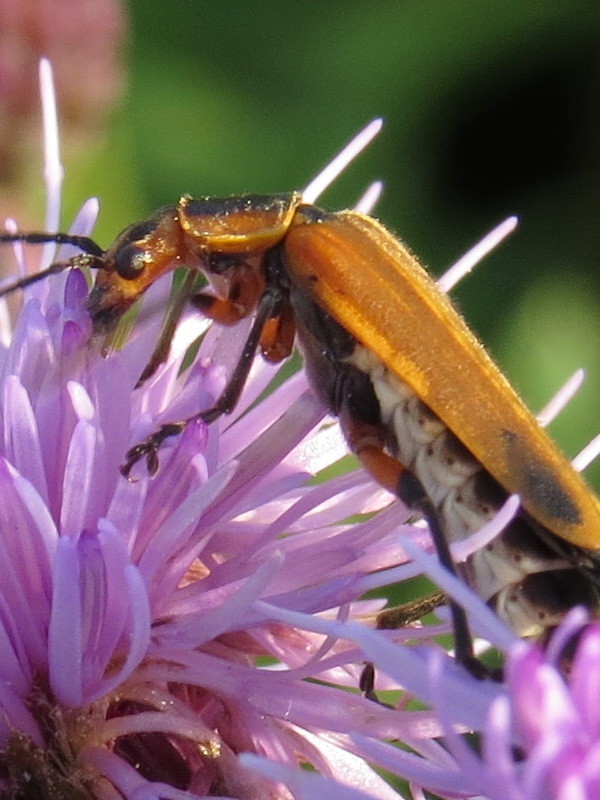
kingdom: Animalia
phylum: Arthropoda
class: Insecta
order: Coleoptera
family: Cantharidae
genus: Chauliognathus
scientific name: Chauliognathus marginatus
